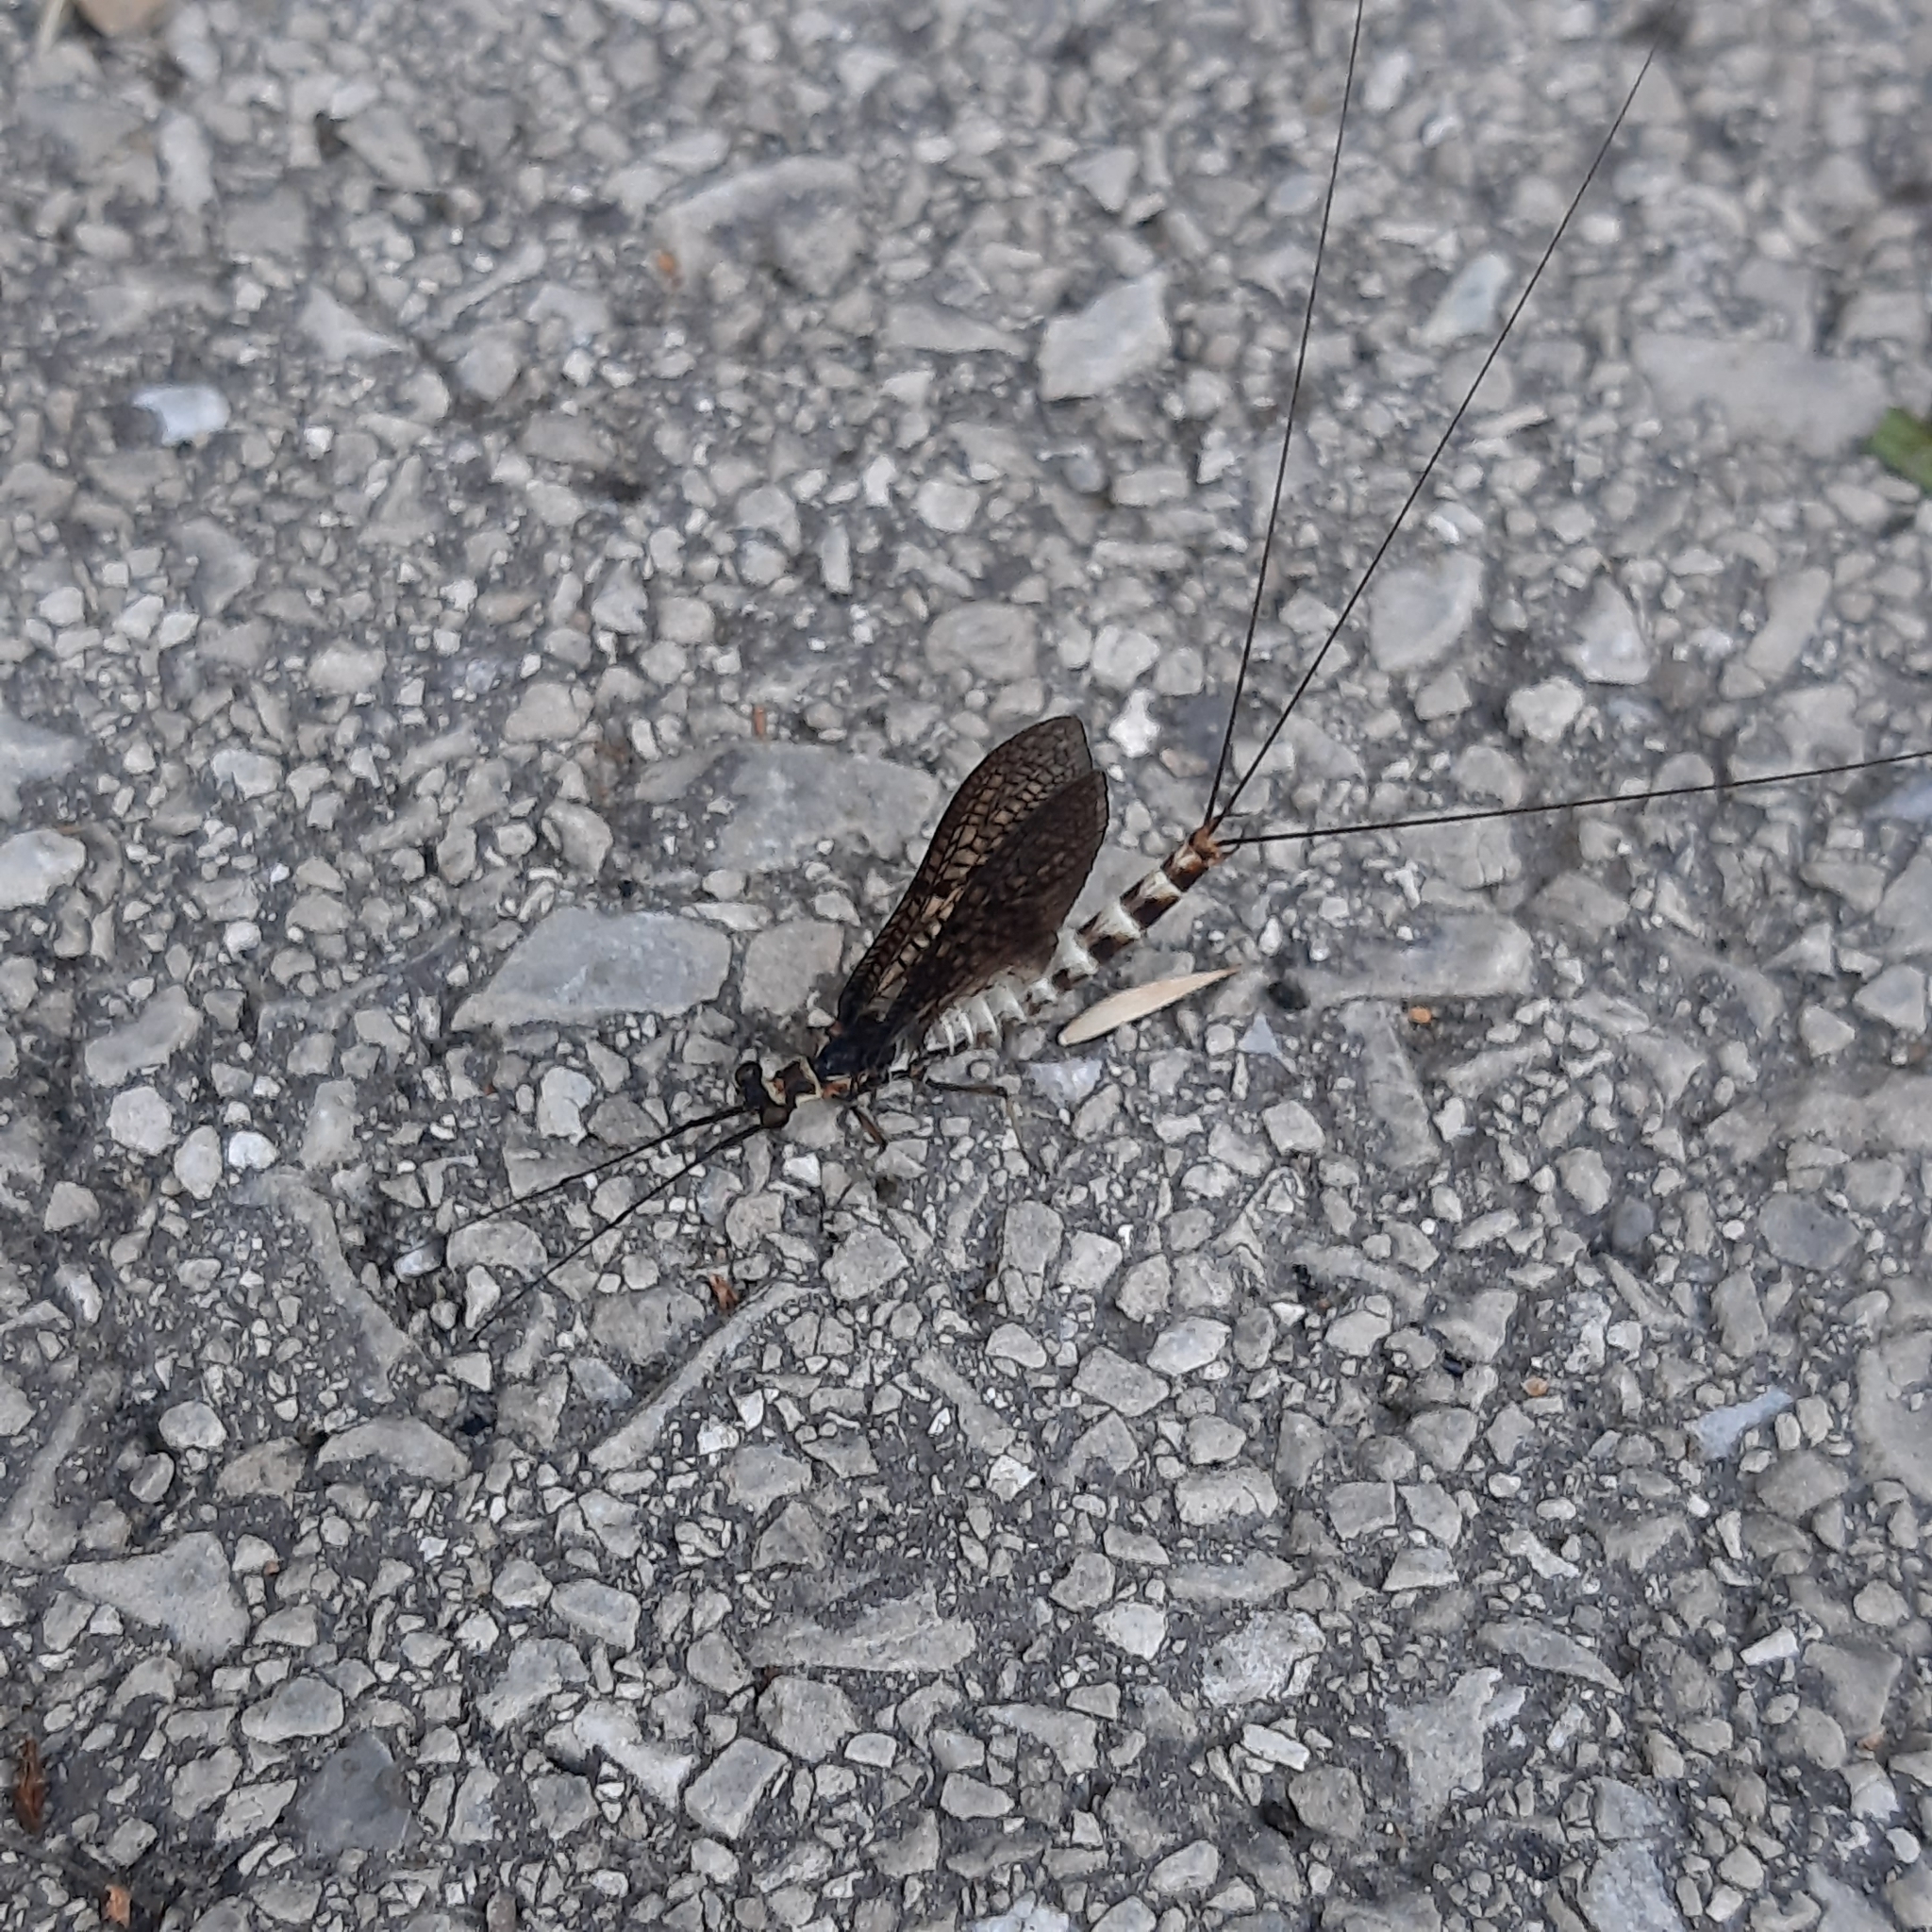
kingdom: Animalia
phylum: Arthropoda
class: Insecta
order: Ephemeroptera
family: Ephemeridae
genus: Ephemera
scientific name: Ephemera danica
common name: Green dun
